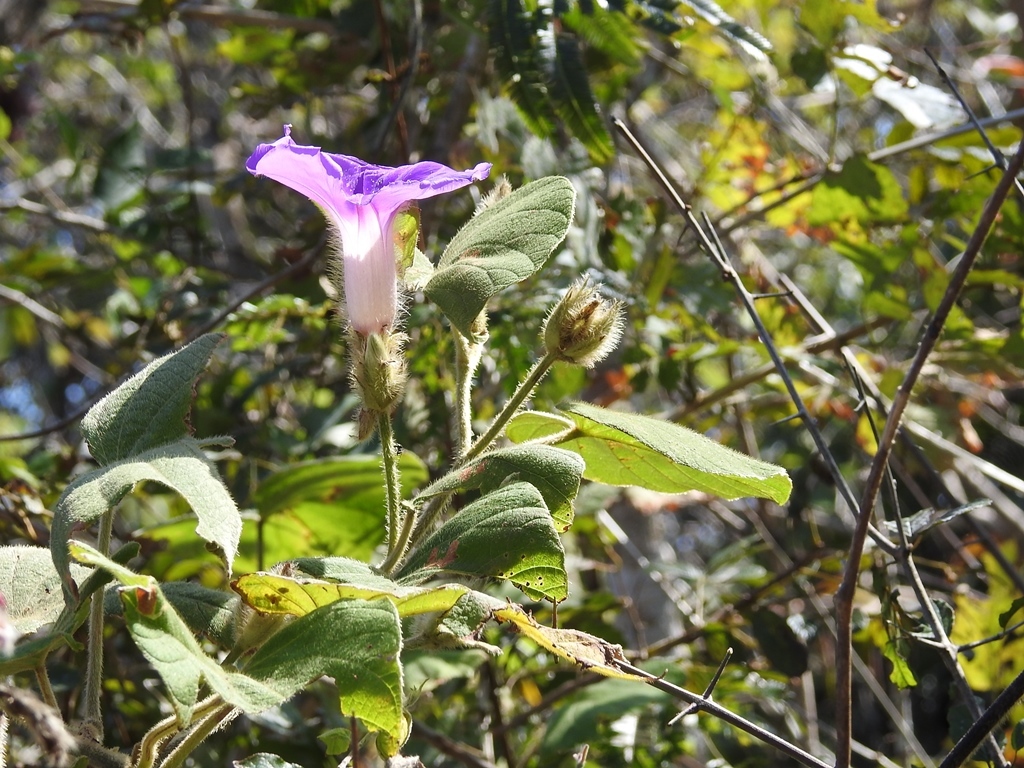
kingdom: Plantae
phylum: Tracheophyta
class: Magnoliopsida
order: Solanales
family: Convolvulaceae
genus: Ipomoea
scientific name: Ipomoea villifera
